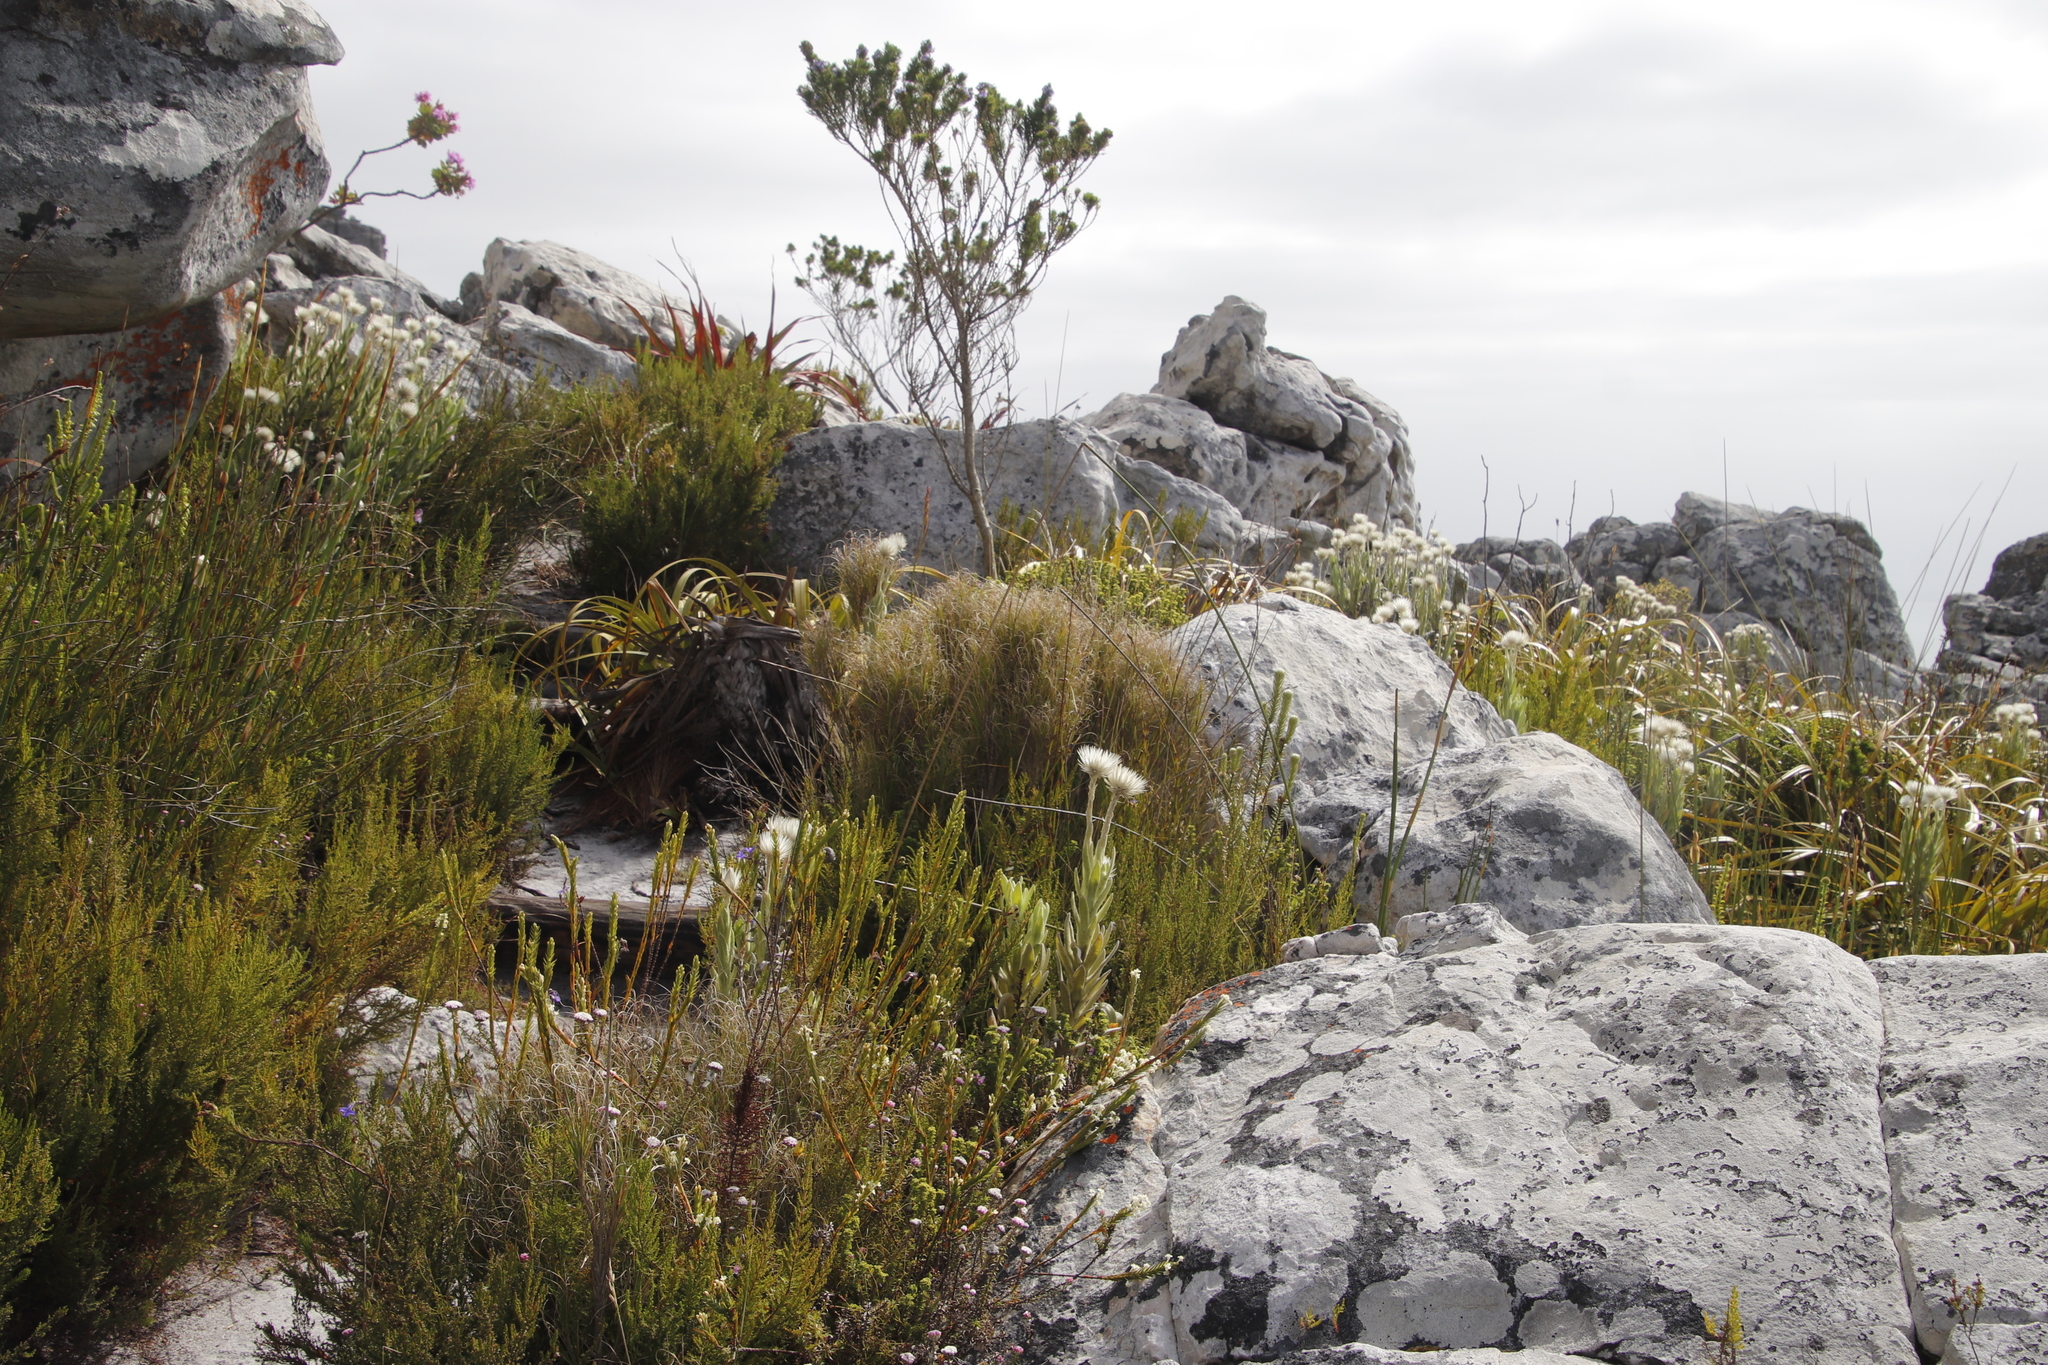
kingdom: Plantae
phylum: Tracheophyta
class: Liliopsida
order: Poales
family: Poaceae
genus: Pseudopentameris
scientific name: Pseudopentameris macrantha
